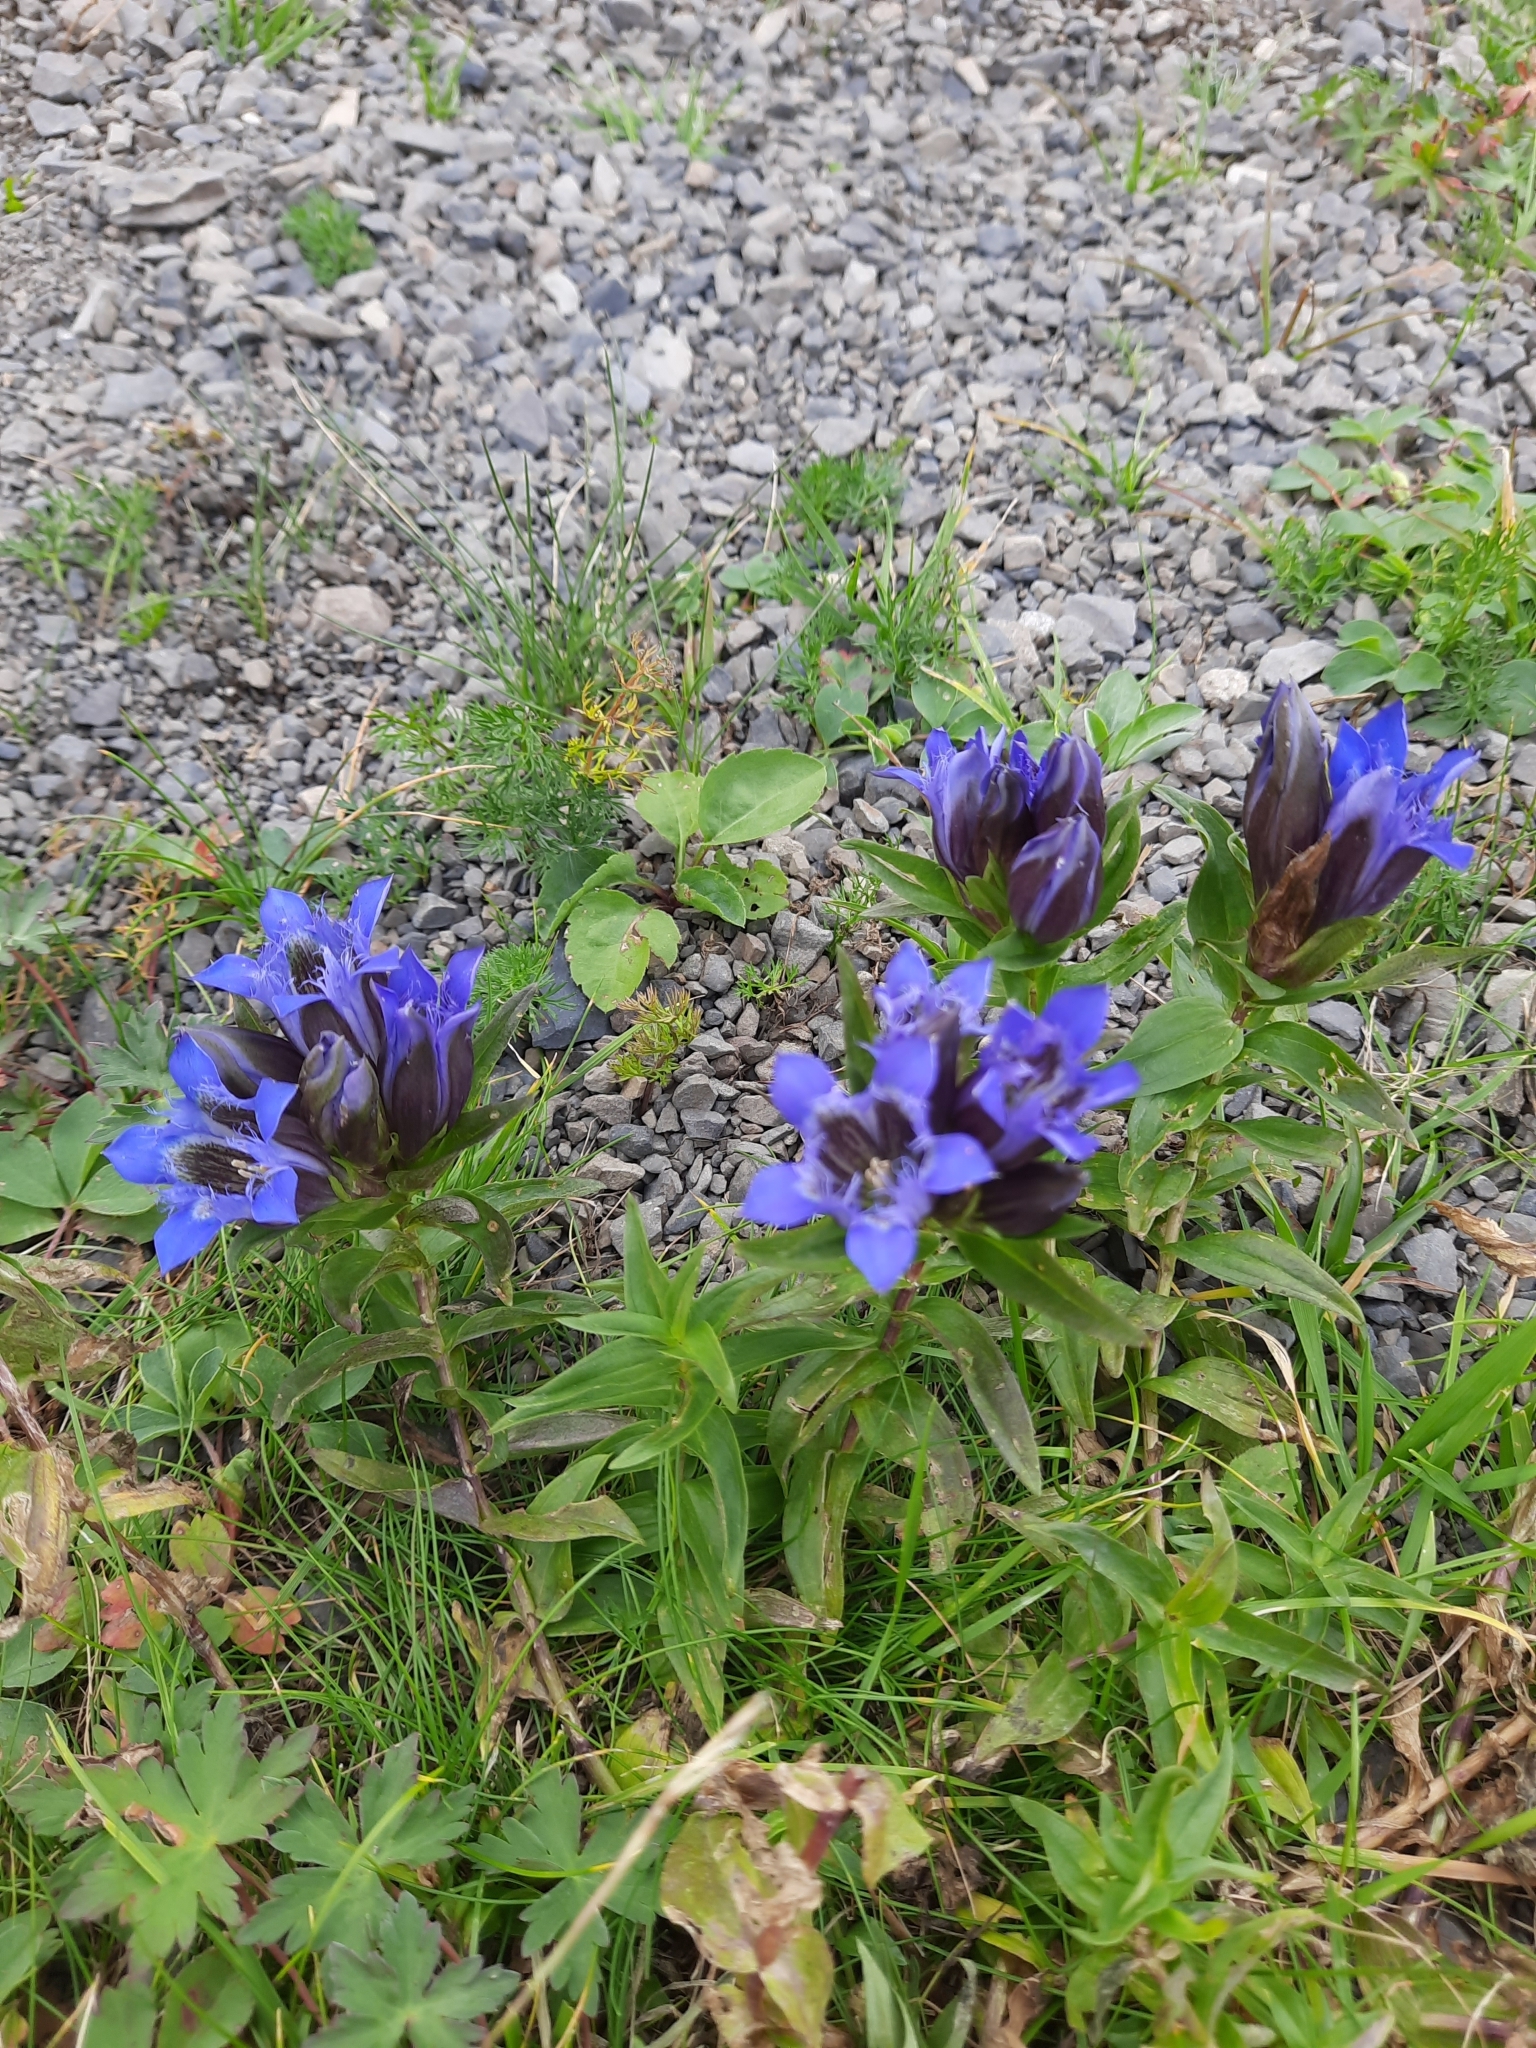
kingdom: Plantae
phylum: Tracheophyta
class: Magnoliopsida
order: Gentianales
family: Gentianaceae
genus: Gentiana
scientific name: Gentiana septemfida
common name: Crested gentian
